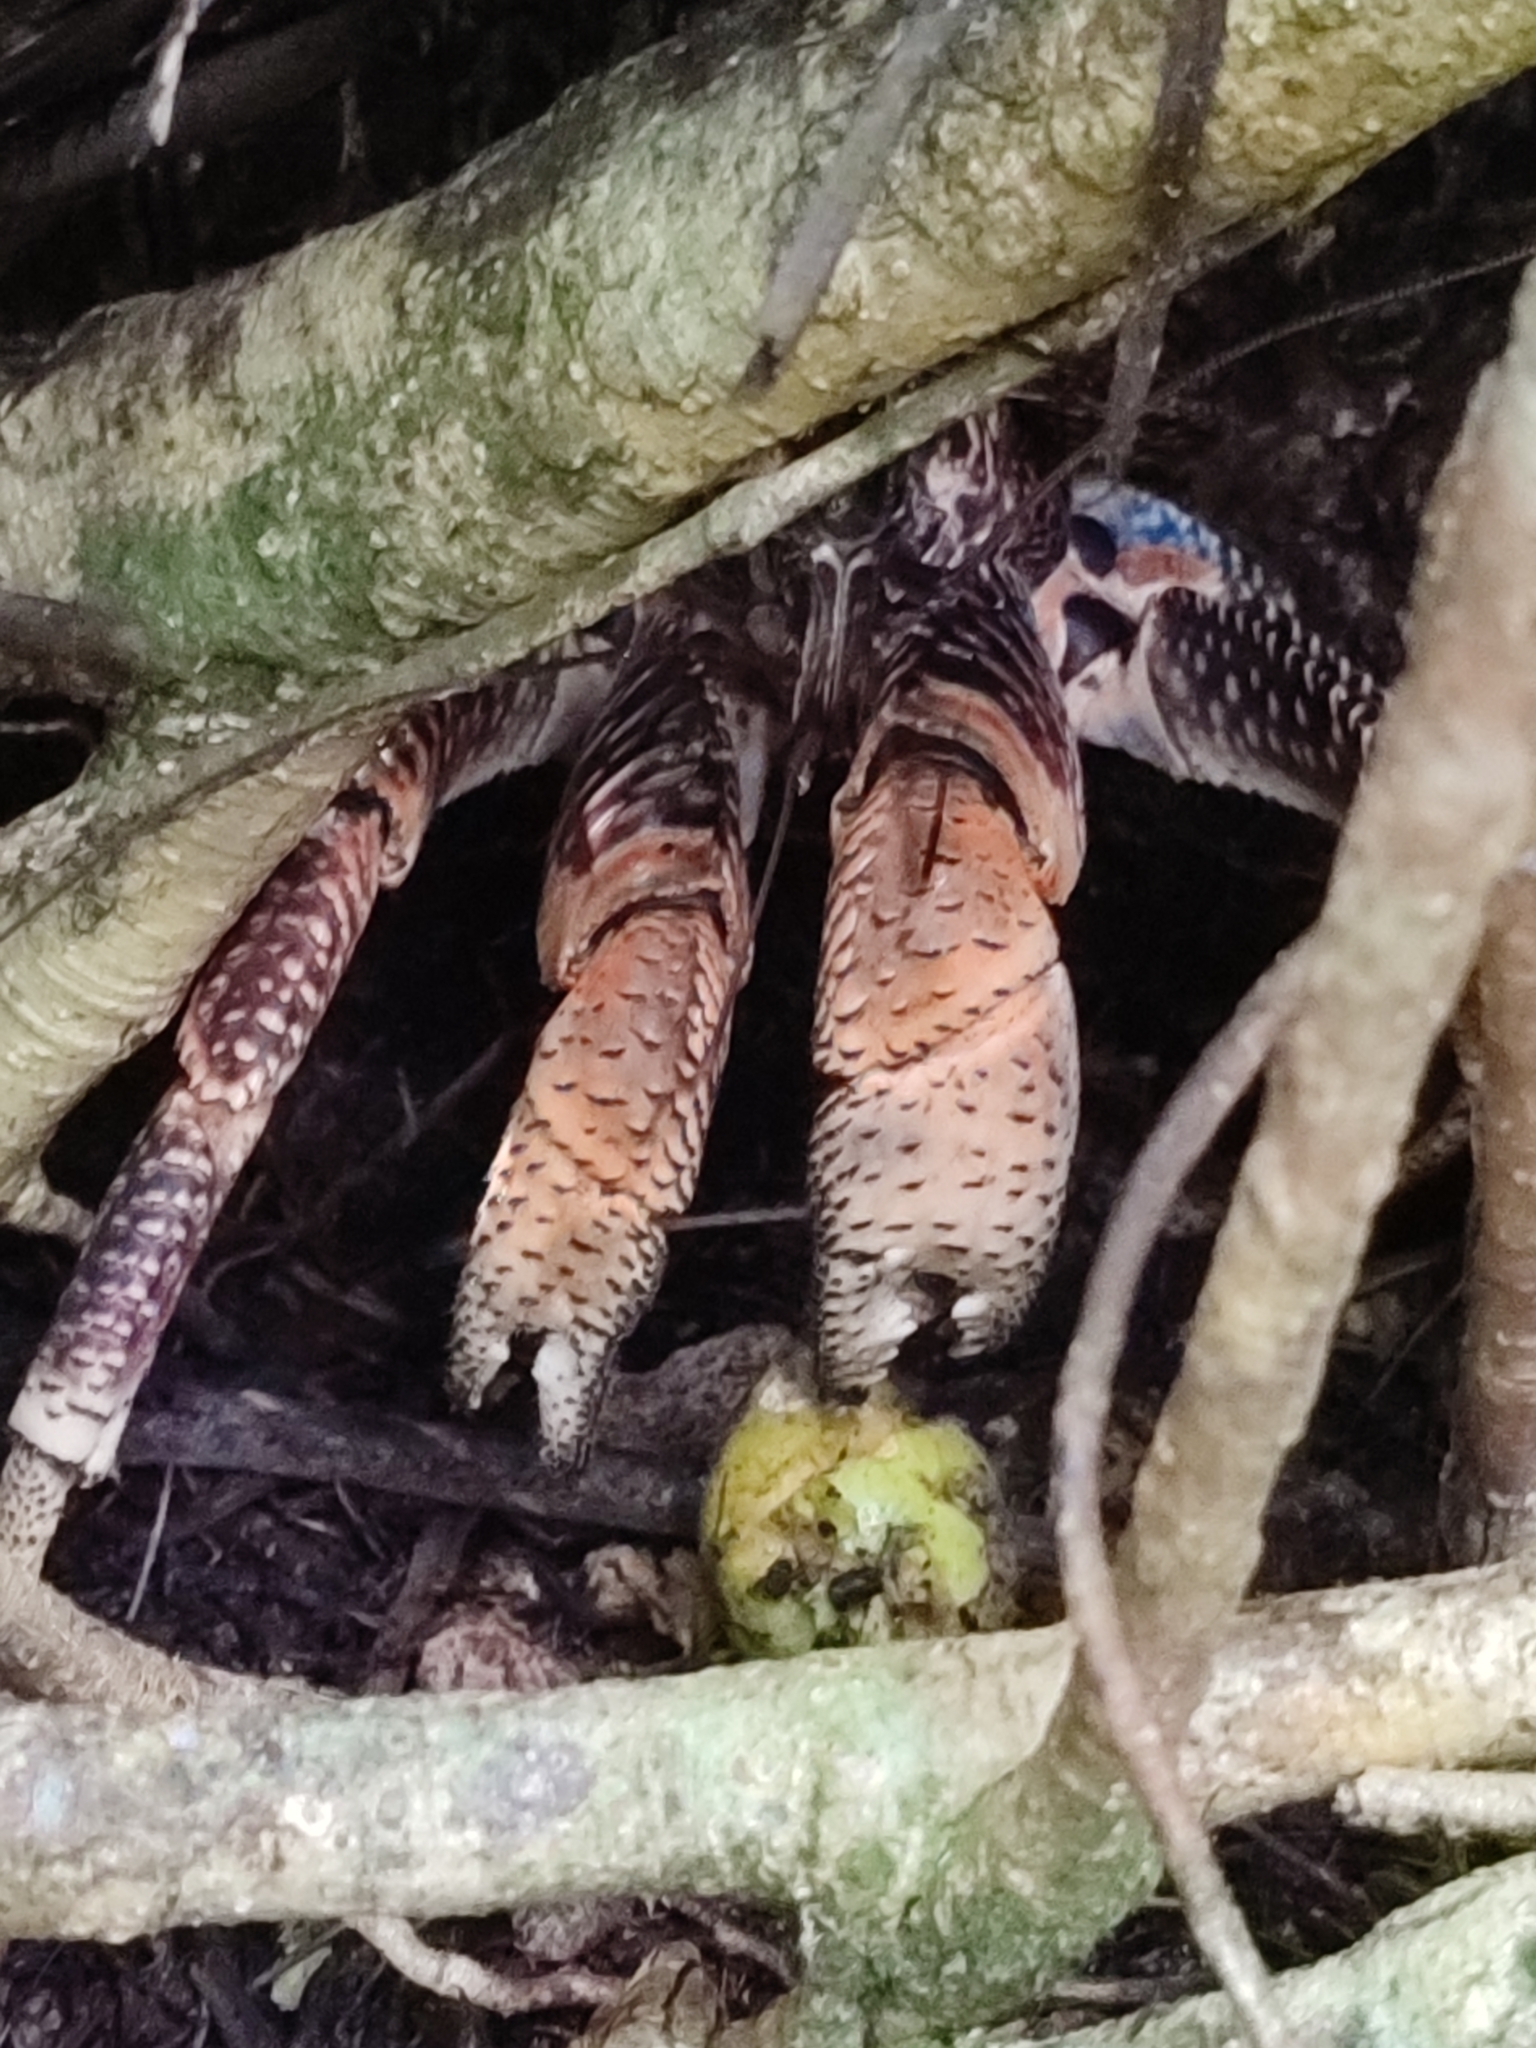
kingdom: Animalia
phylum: Arthropoda
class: Malacostraca
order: Decapoda
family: Coenobitidae
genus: Birgus
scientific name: Birgus latro
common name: Coconut crab
